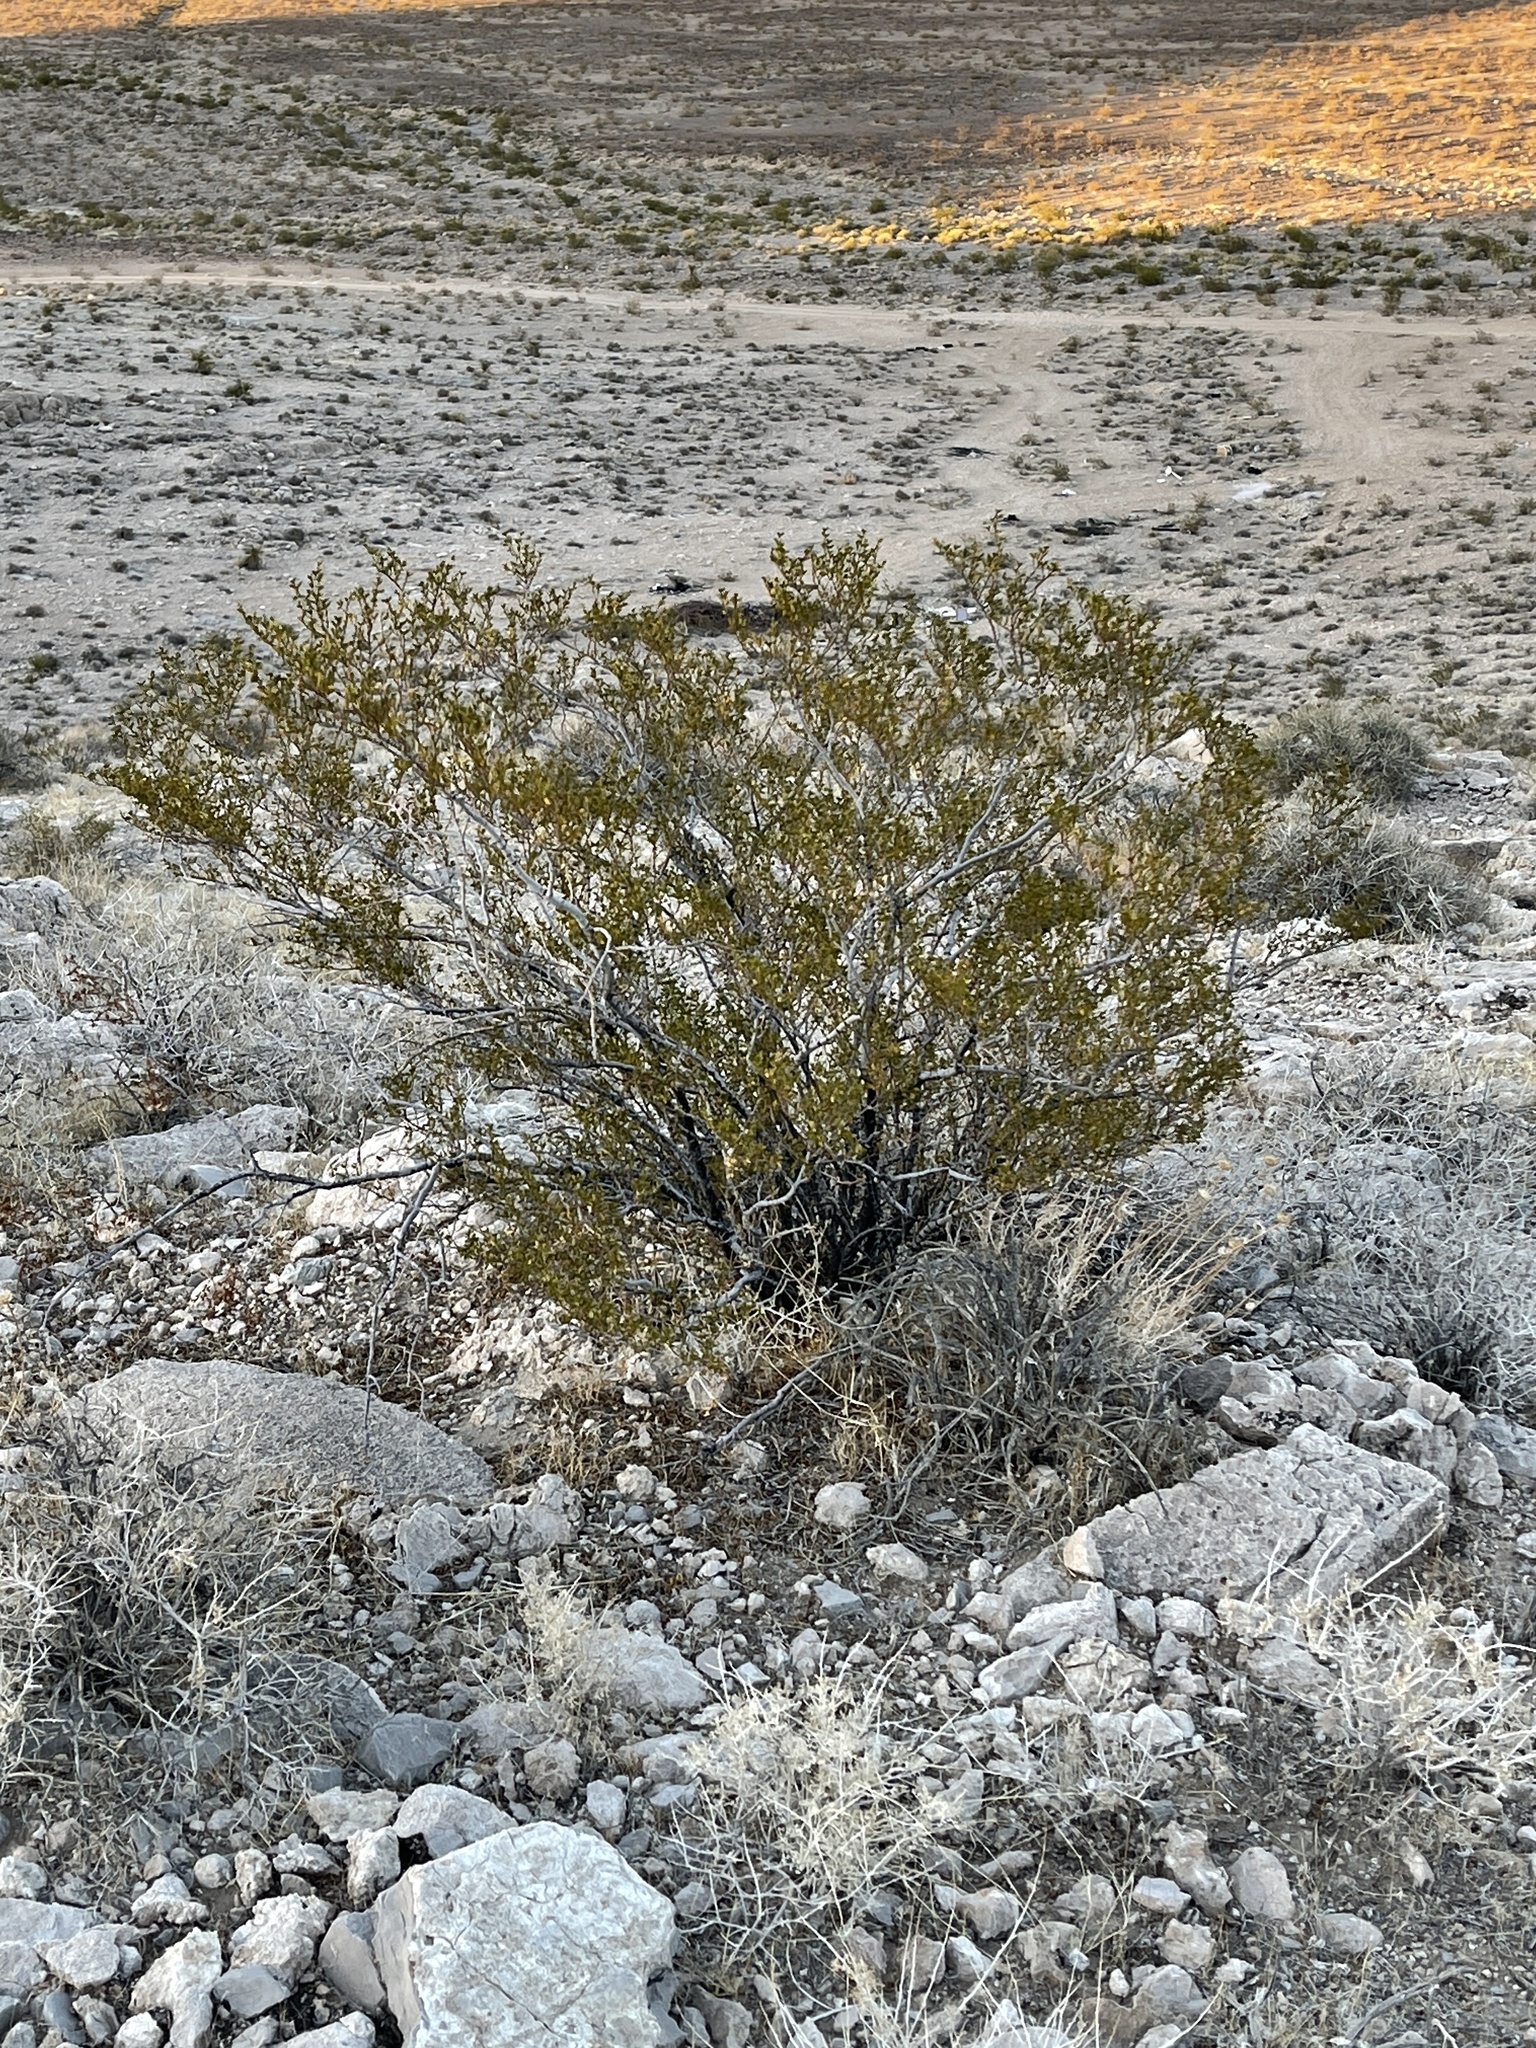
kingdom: Plantae
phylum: Tracheophyta
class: Magnoliopsida
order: Zygophyllales
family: Zygophyllaceae
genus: Larrea
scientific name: Larrea tridentata
